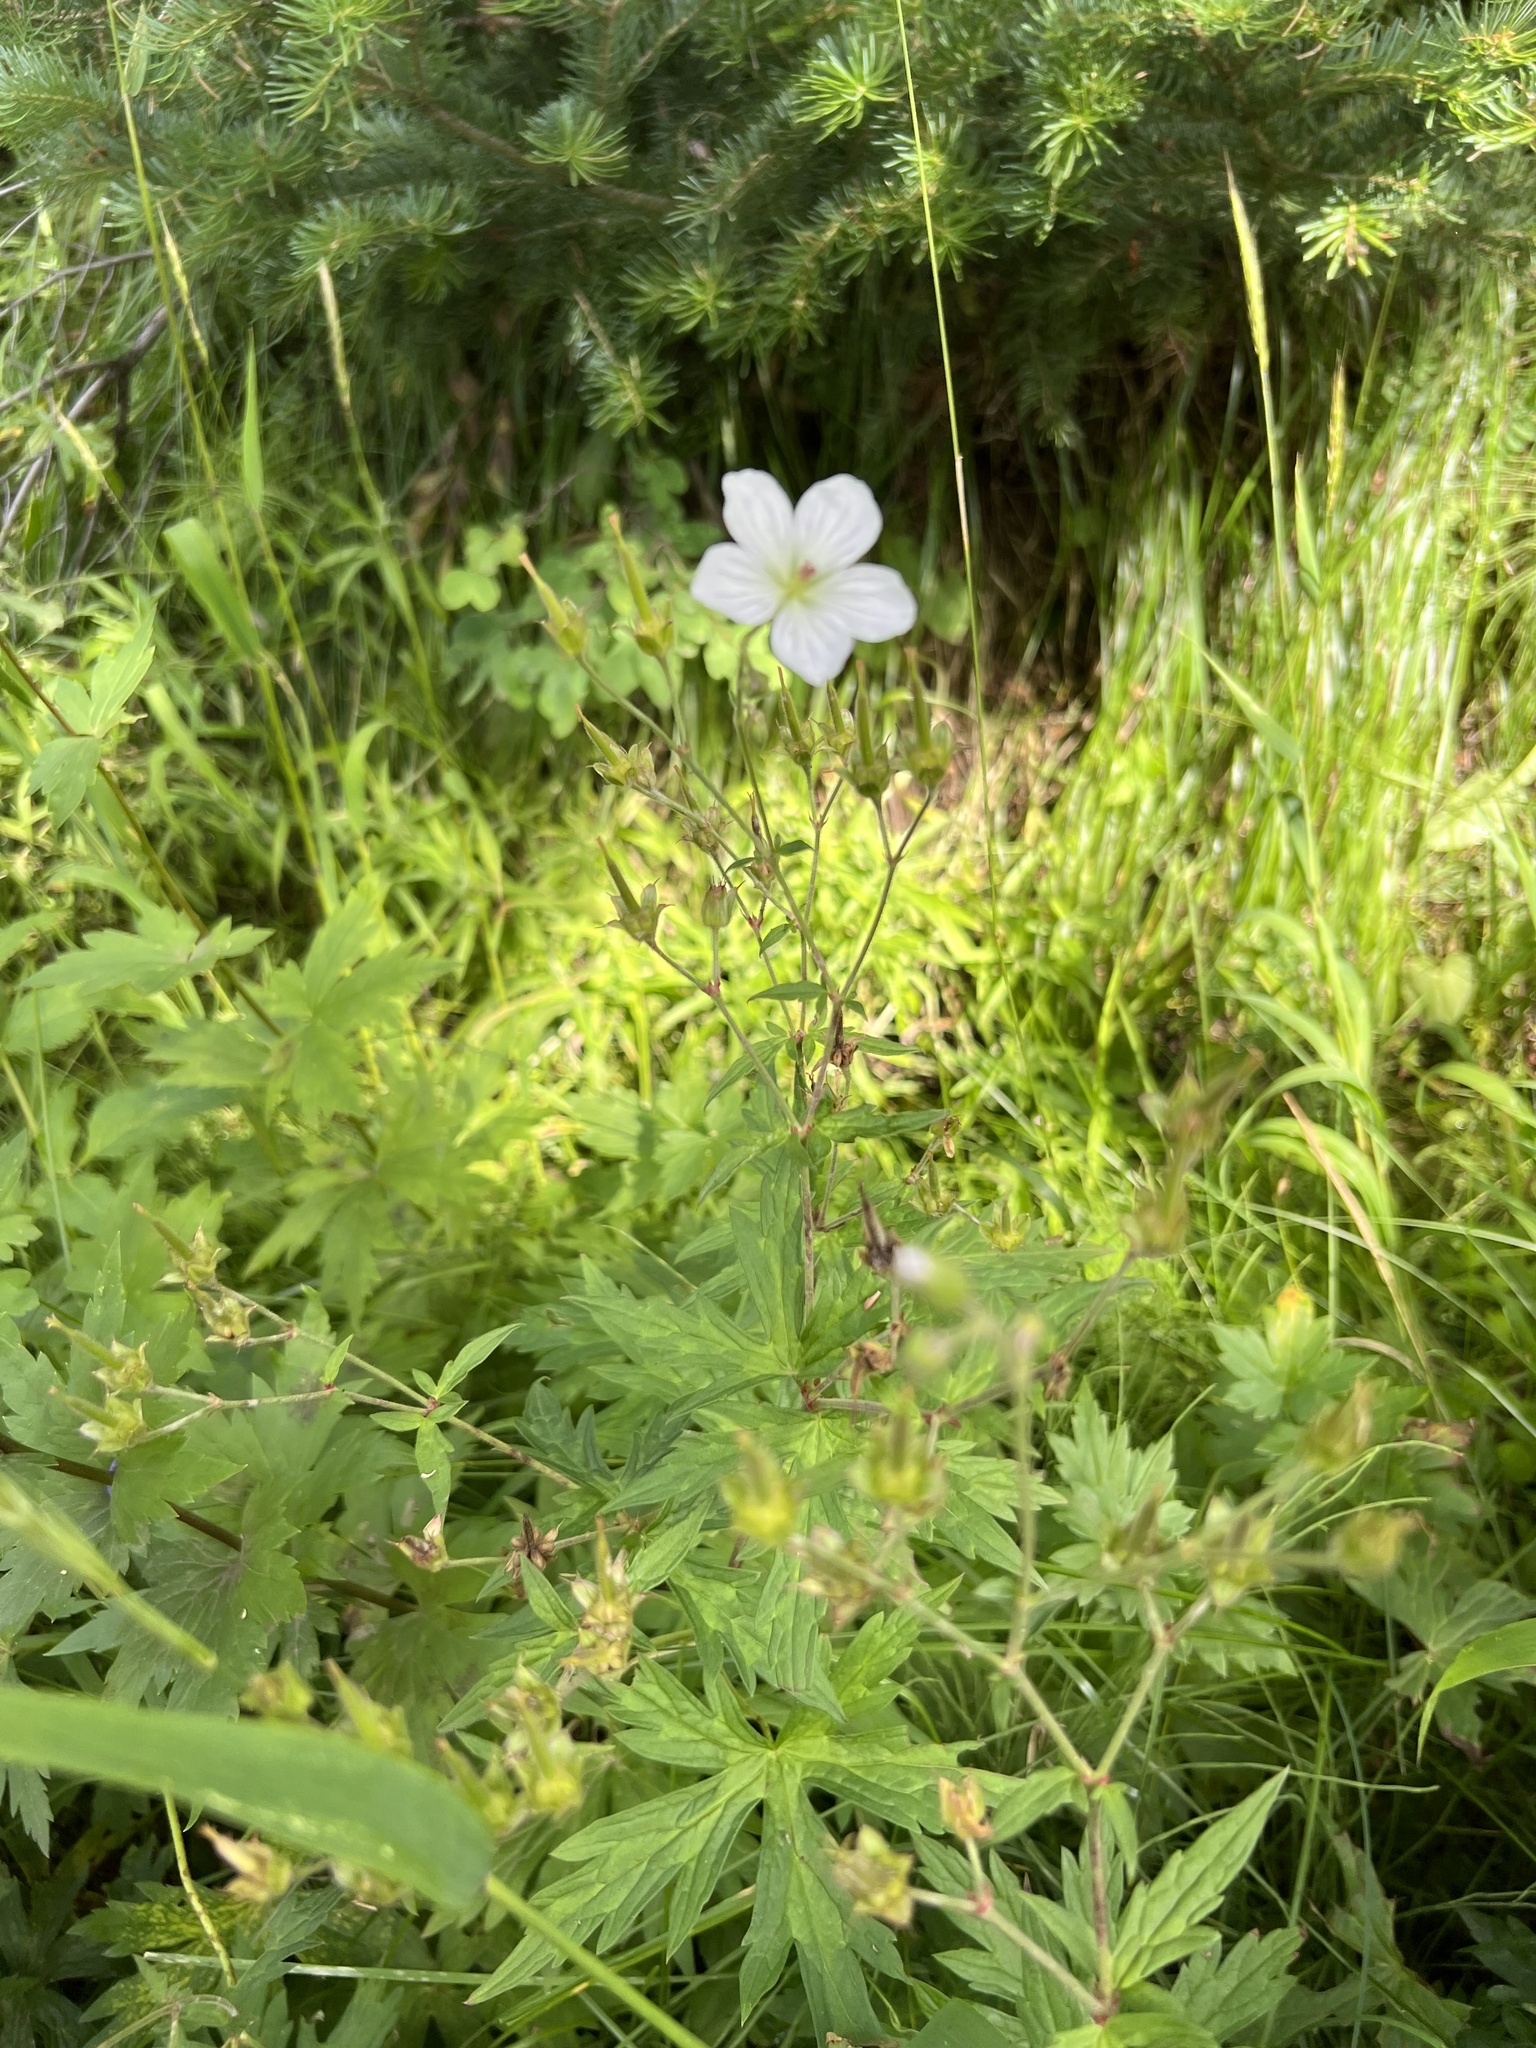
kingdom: Plantae
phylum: Tracheophyta
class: Magnoliopsida
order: Geraniales
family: Geraniaceae
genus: Geranium
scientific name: Geranium richardsonii
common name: Richardson's crane's-bill
